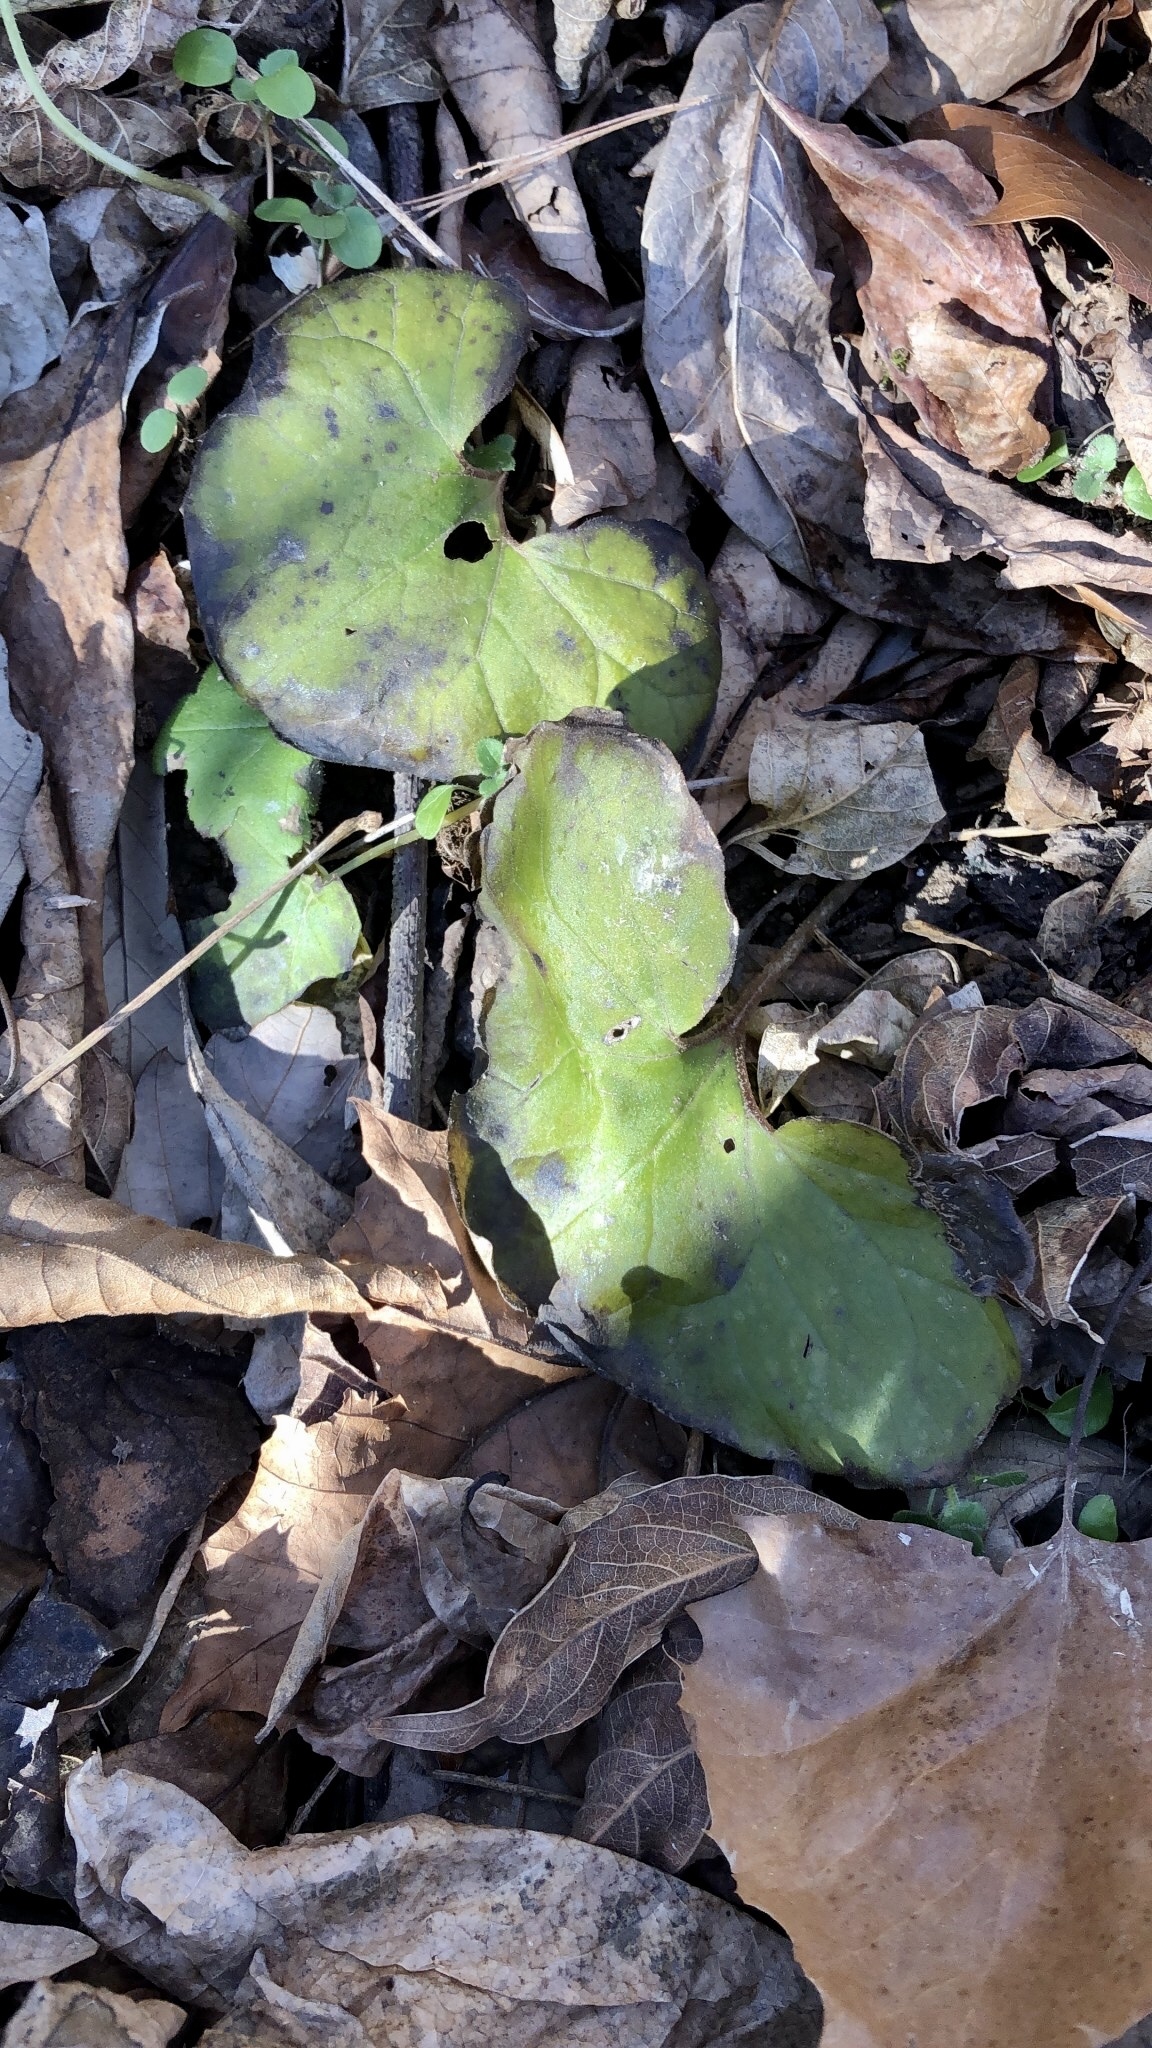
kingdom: Plantae
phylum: Tracheophyta
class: Magnoliopsida
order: Piperales
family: Aristolochiaceae
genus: Asarum
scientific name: Asarum canadense
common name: Wild ginger
